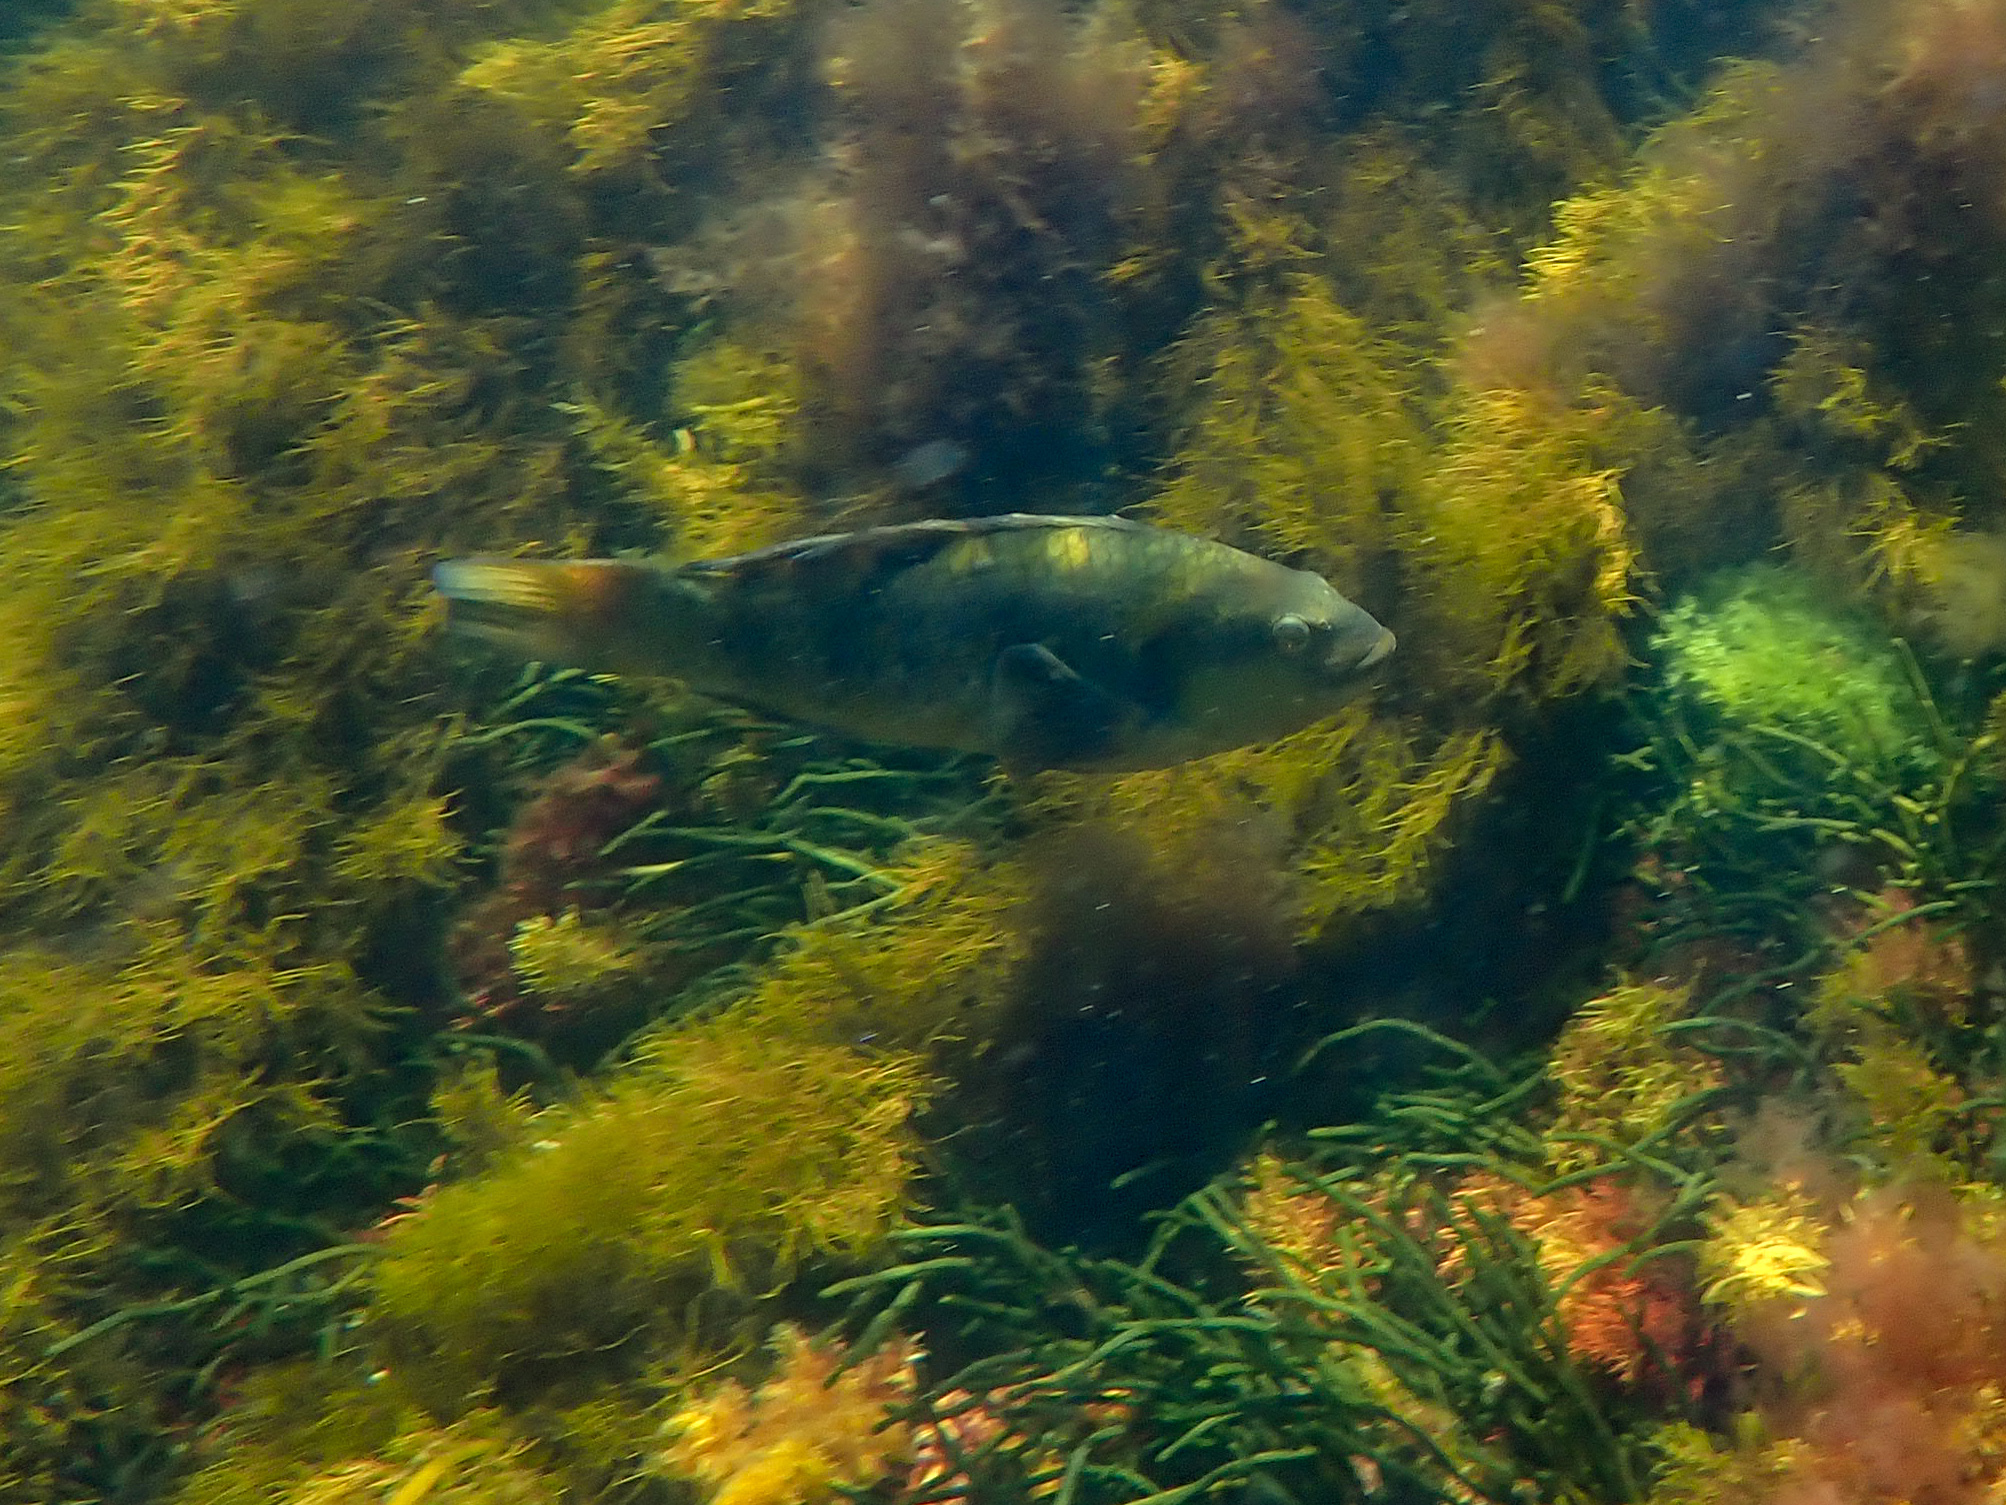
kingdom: Animalia
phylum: Chordata
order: Perciformes
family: Labridae
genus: Notolabrus
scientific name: Notolabrus fucicola
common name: Banded parrotfish
